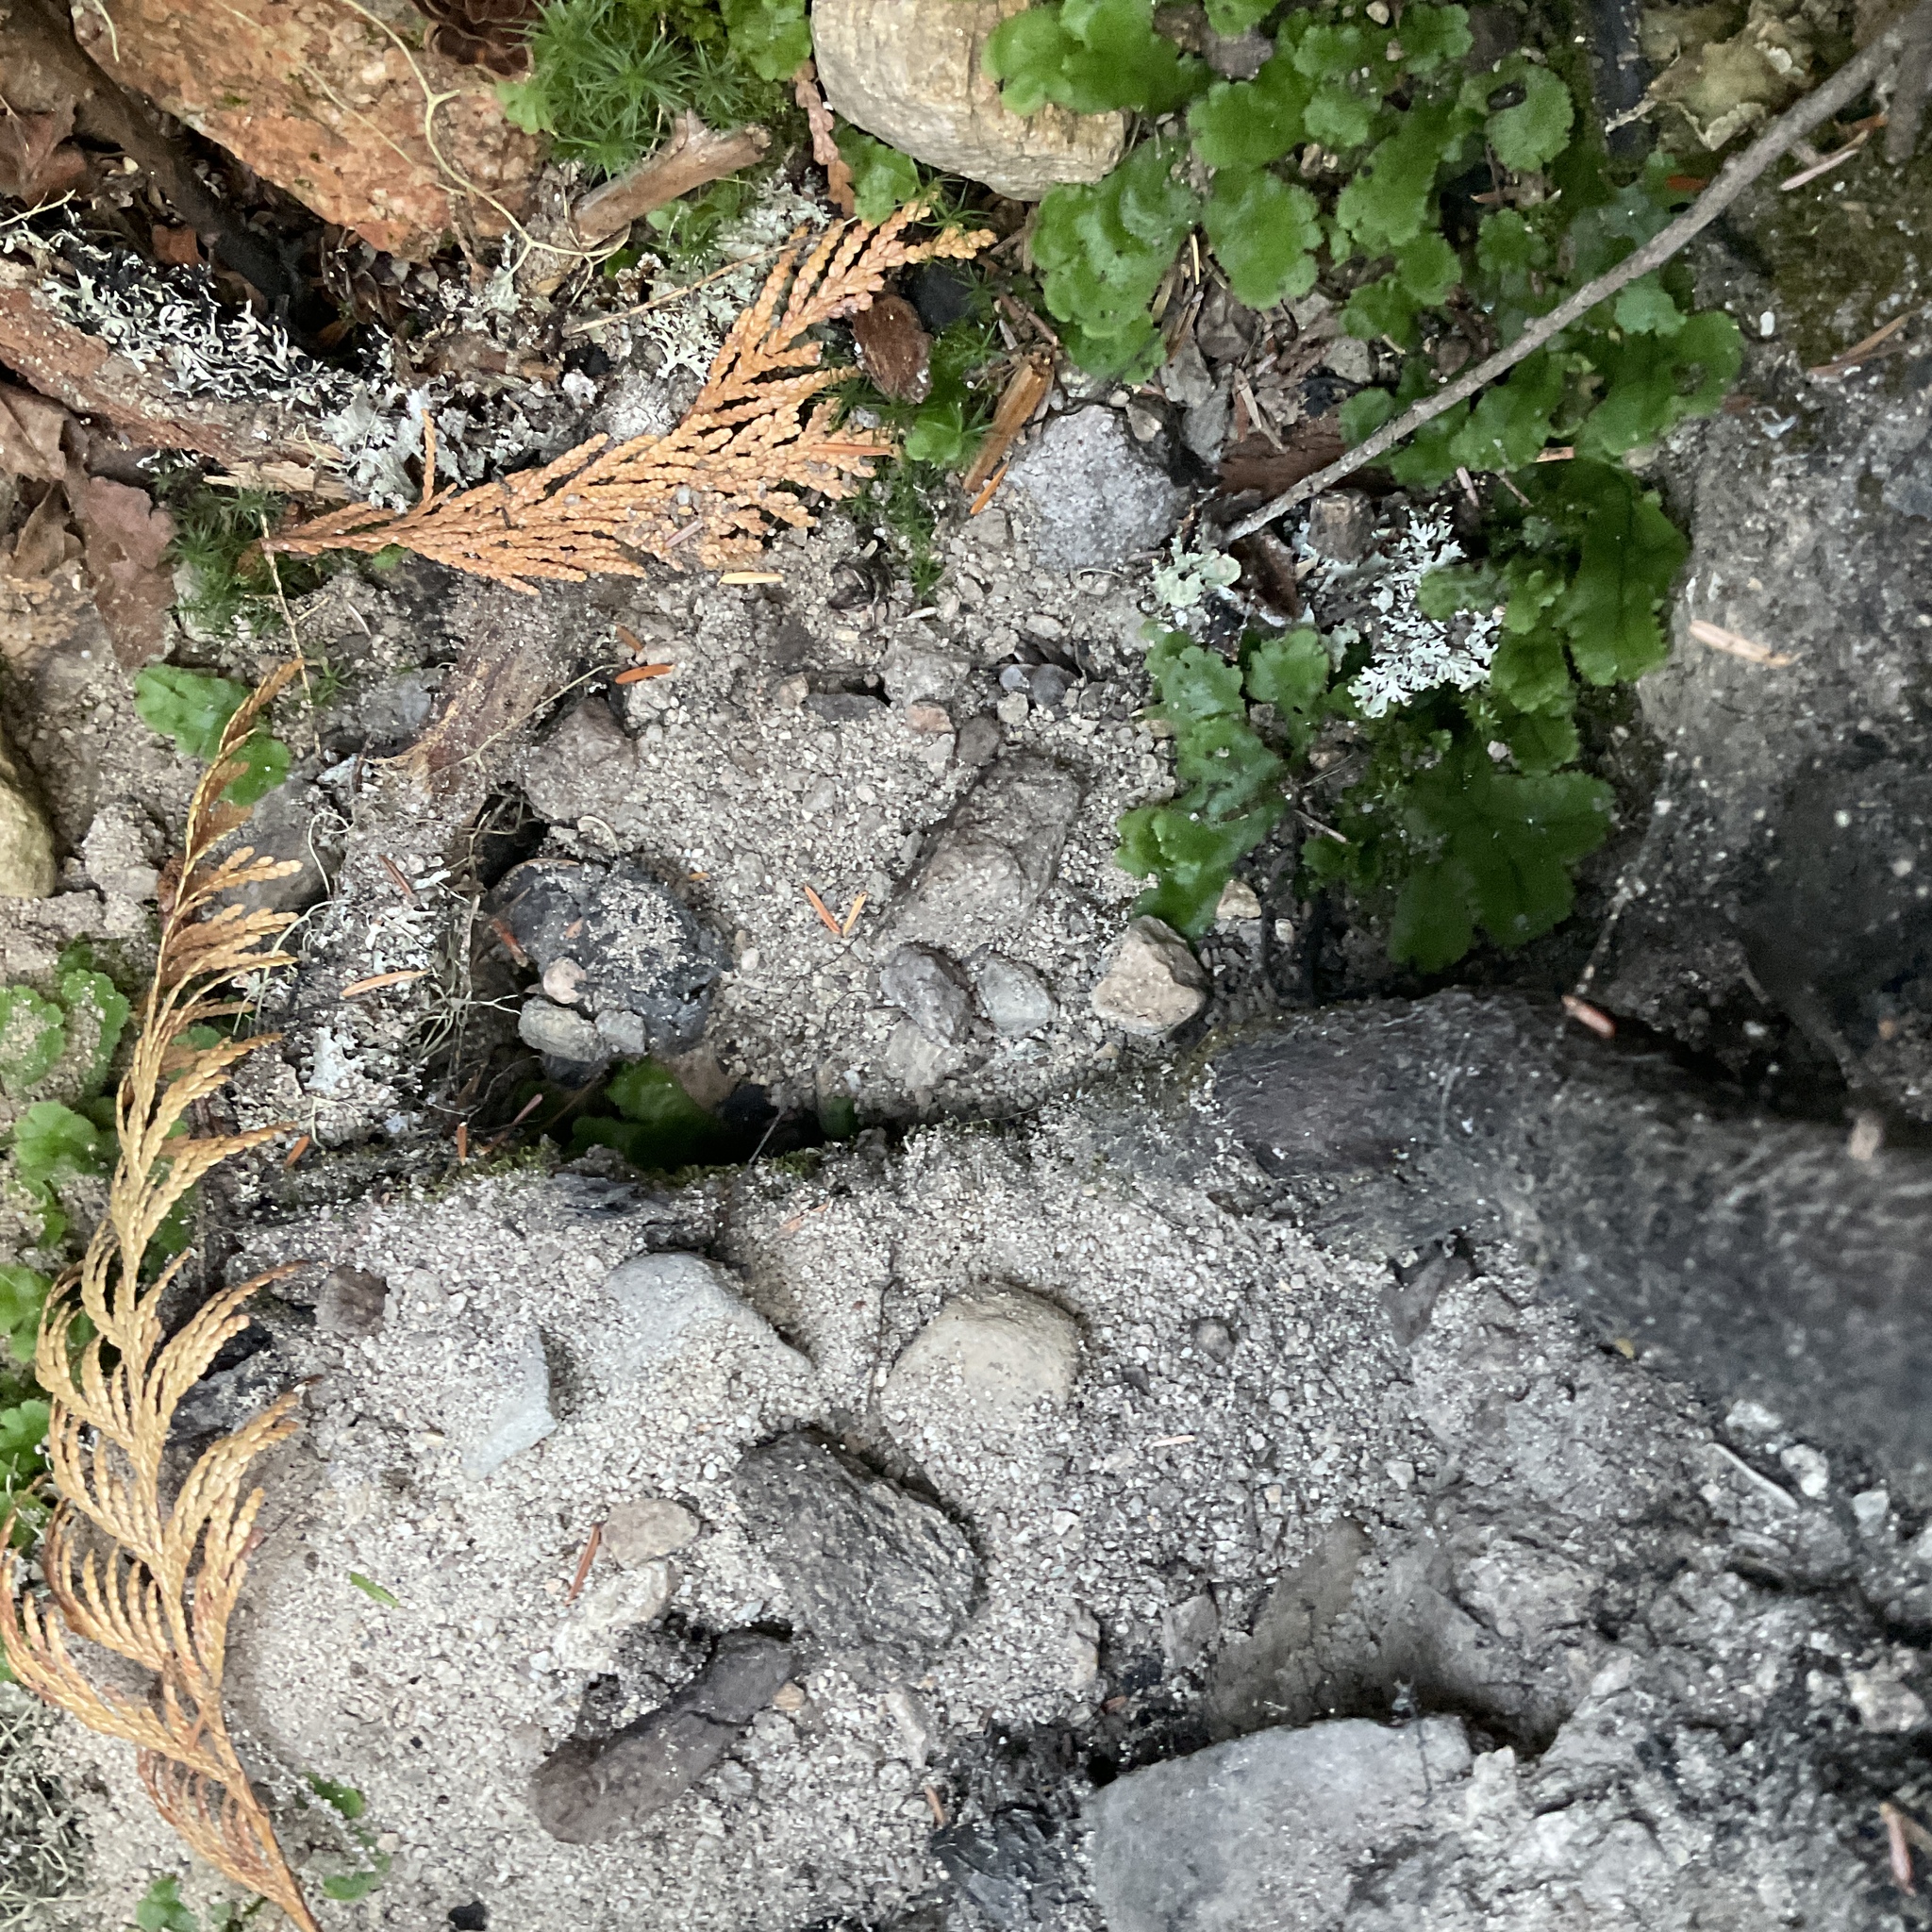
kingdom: Plantae
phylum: Marchantiophyta
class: Marchantiopsida
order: Marchantiales
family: Marchantiaceae
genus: Marchantia
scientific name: Marchantia polymorpha
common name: Common liverwort
